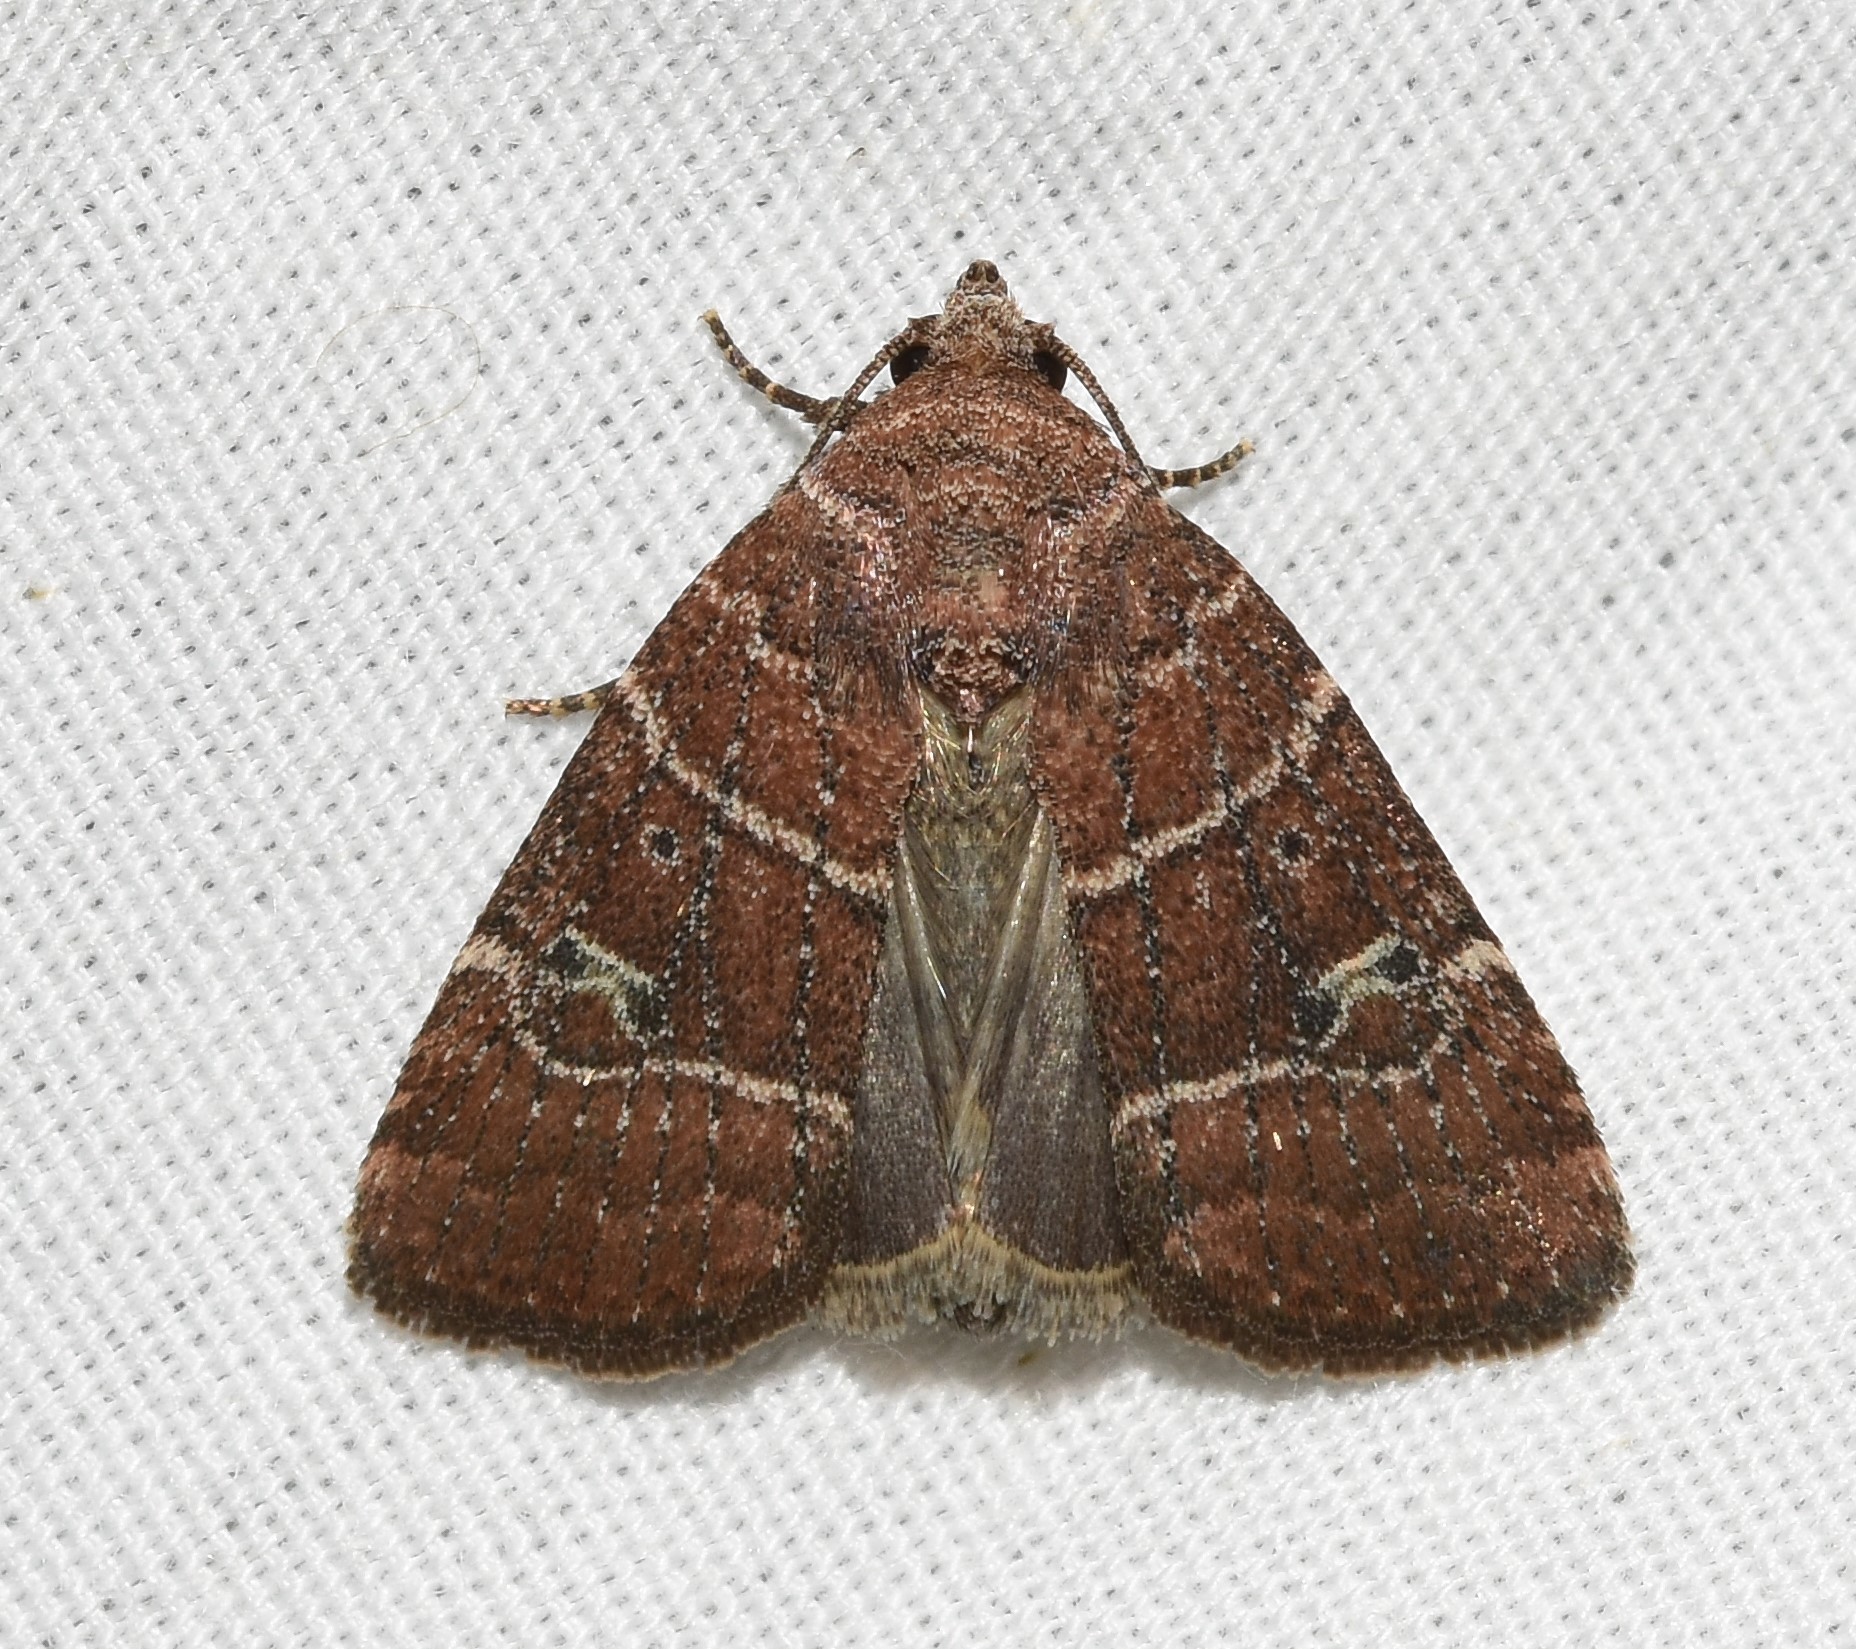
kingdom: Animalia
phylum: Arthropoda
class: Insecta
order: Lepidoptera
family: Noctuidae
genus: Elaphria
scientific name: Elaphria grata
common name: Grateful midget moth
